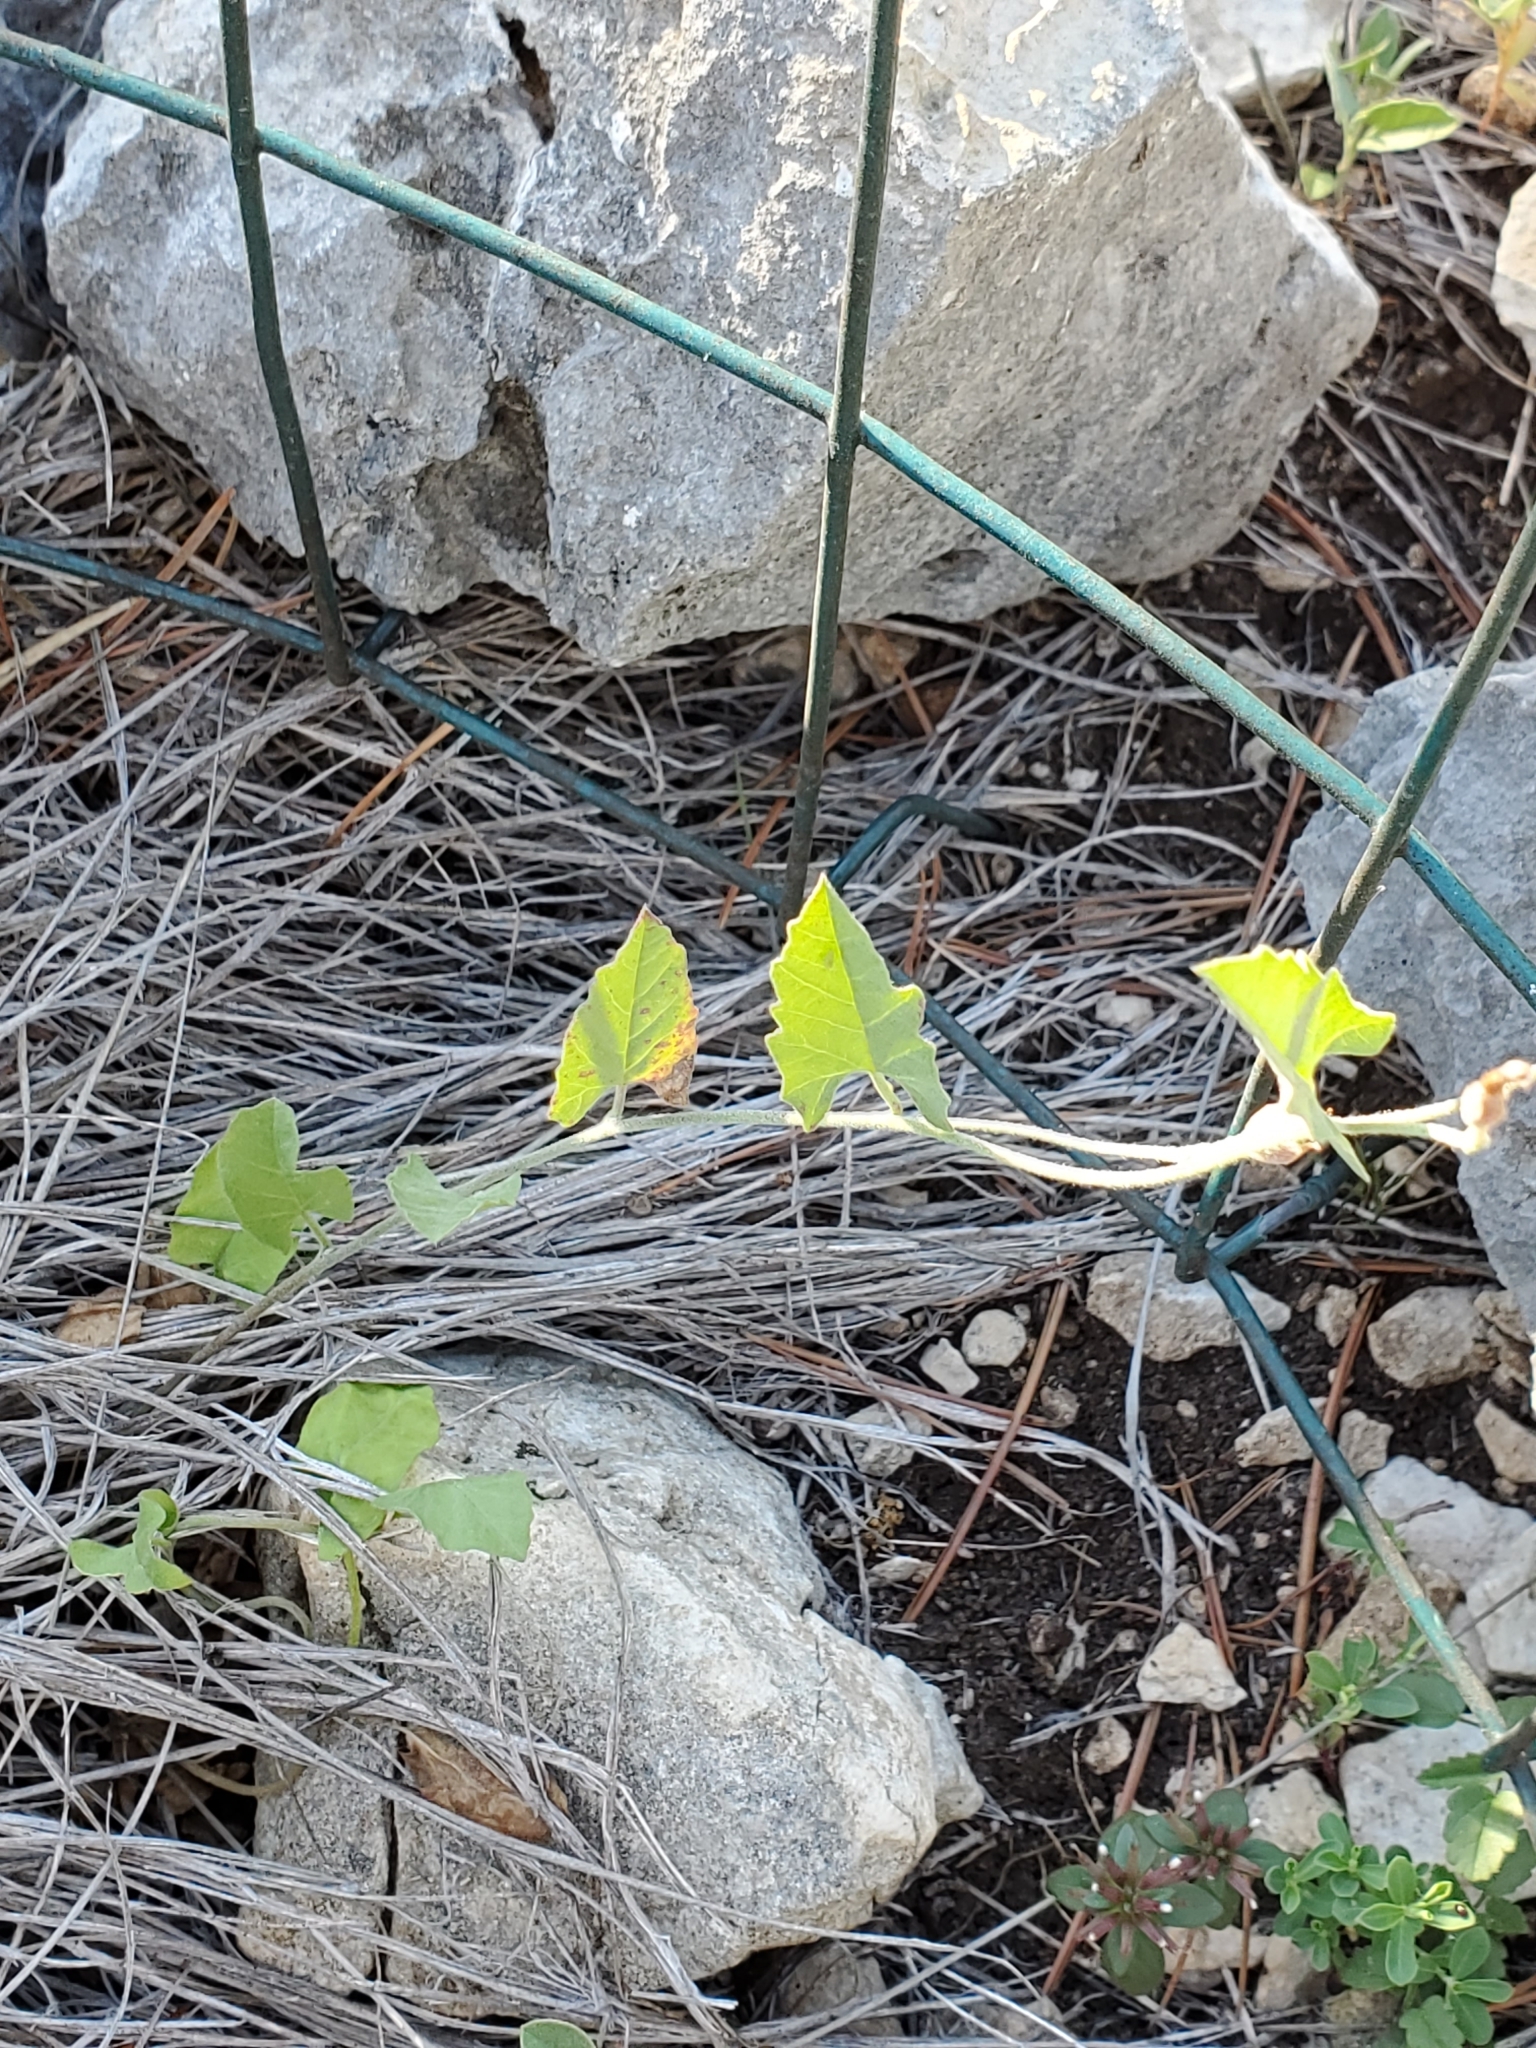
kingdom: Plantae
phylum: Tracheophyta
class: Magnoliopsida
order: Solanales
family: Convolvulaceae
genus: Convolvulus
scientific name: Convolvulus equitans
